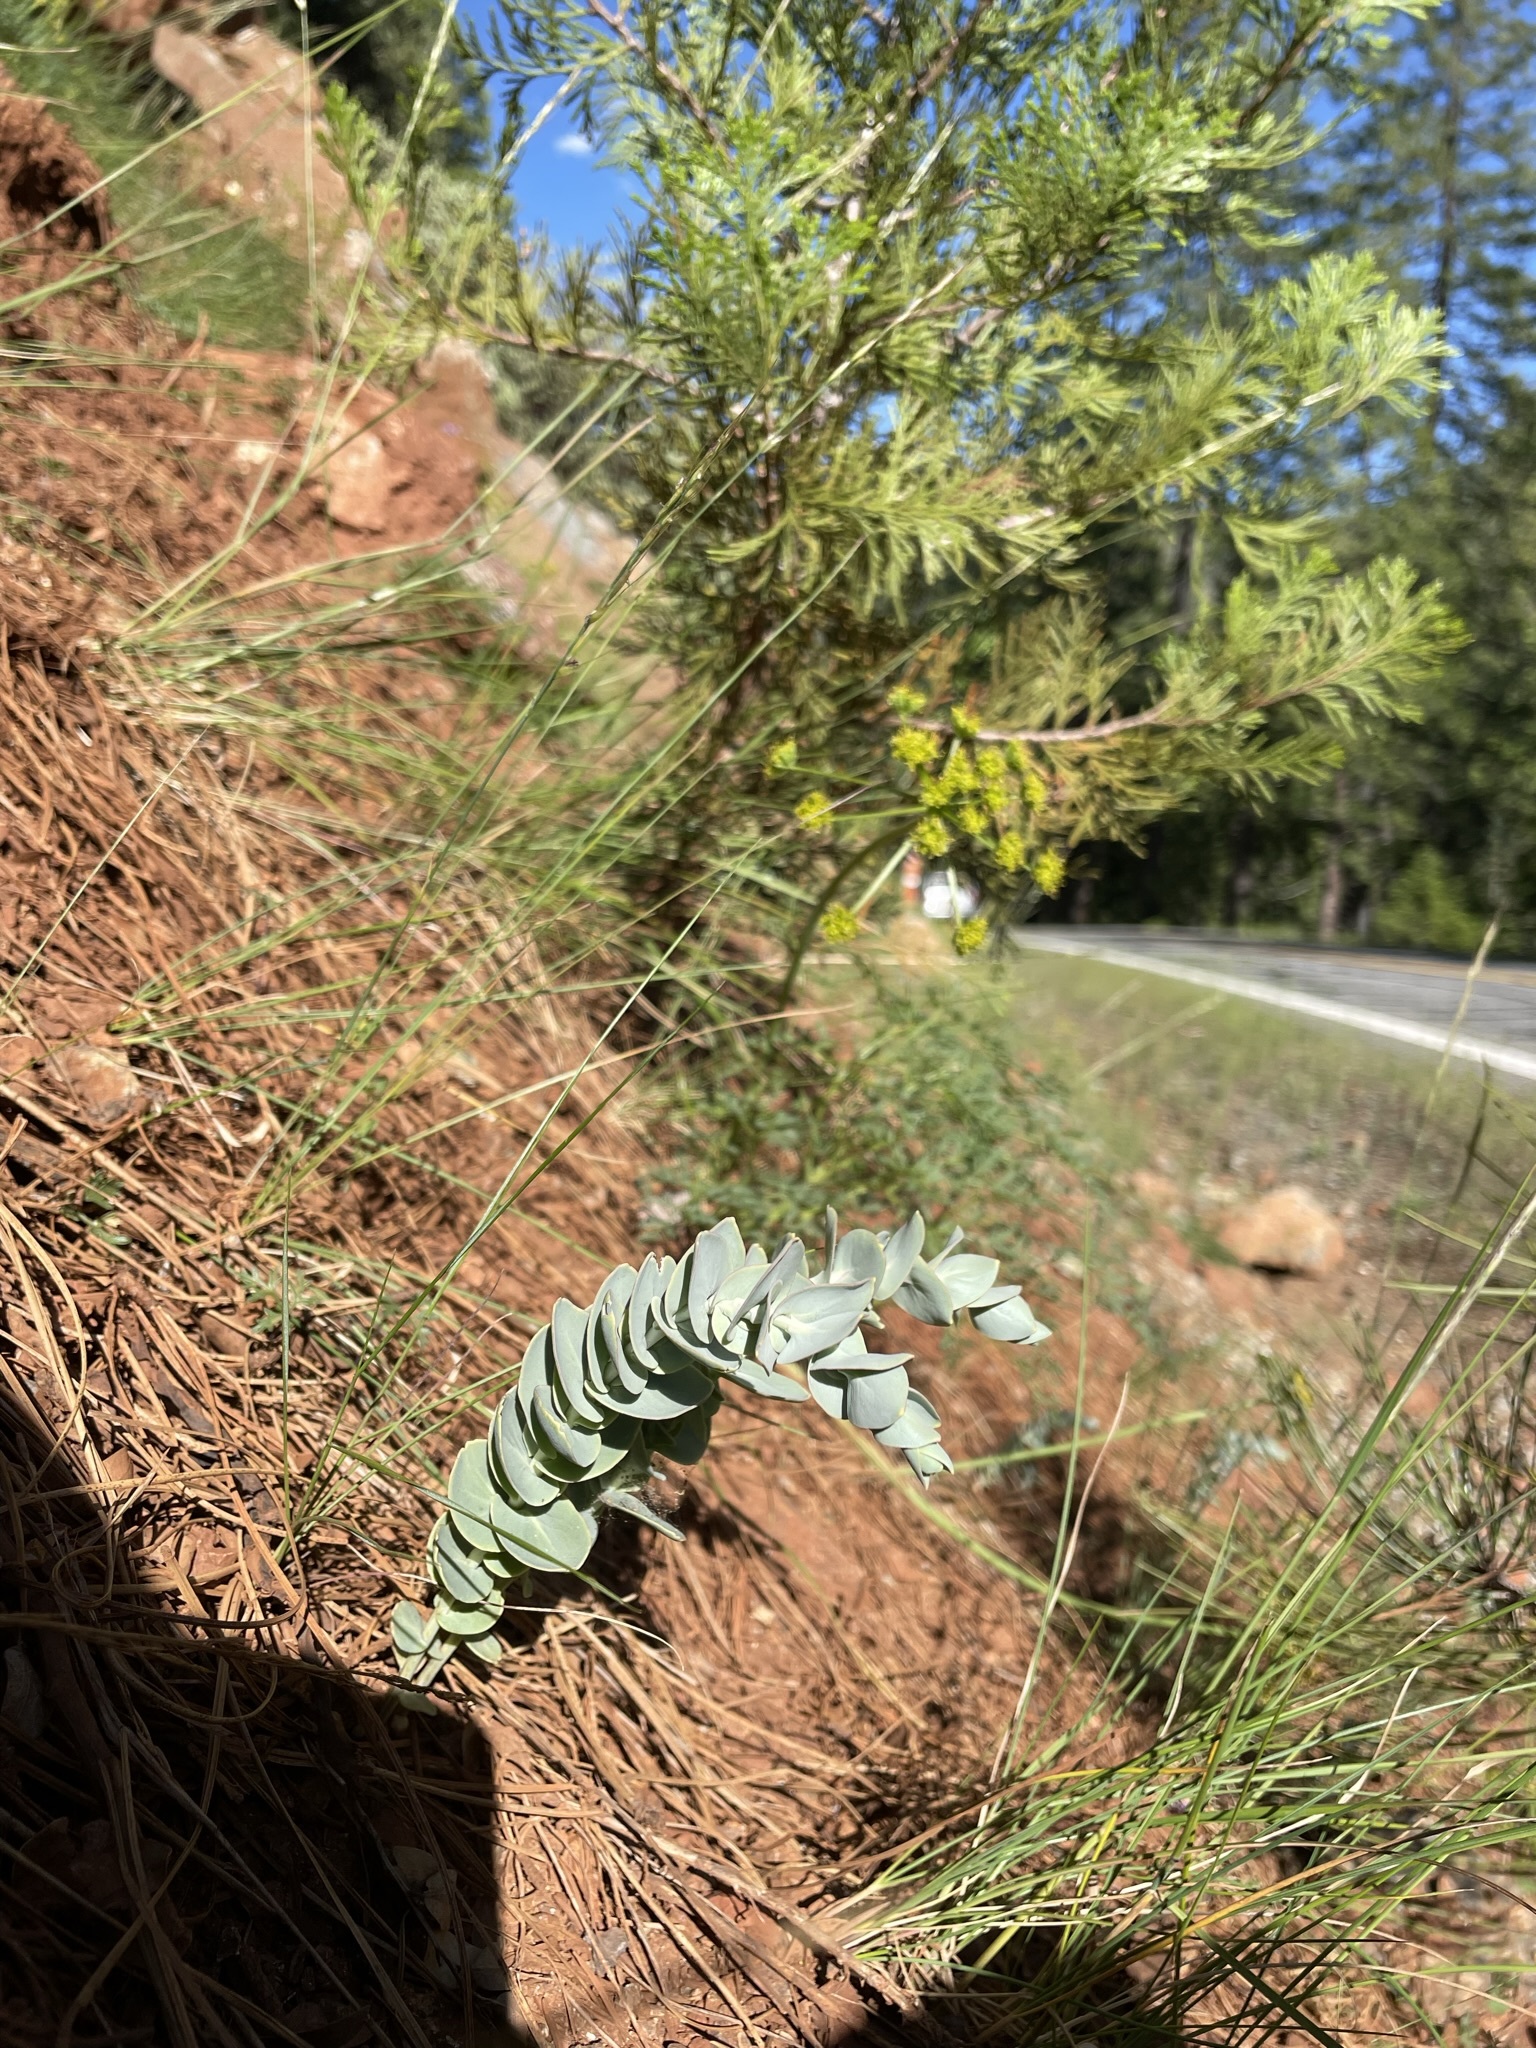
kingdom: Plantae
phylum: Tracheophyta
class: Magnoliopsida
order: Brassicales
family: Brassicaceae
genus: Streptanthus
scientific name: Streptanthus barbatus
